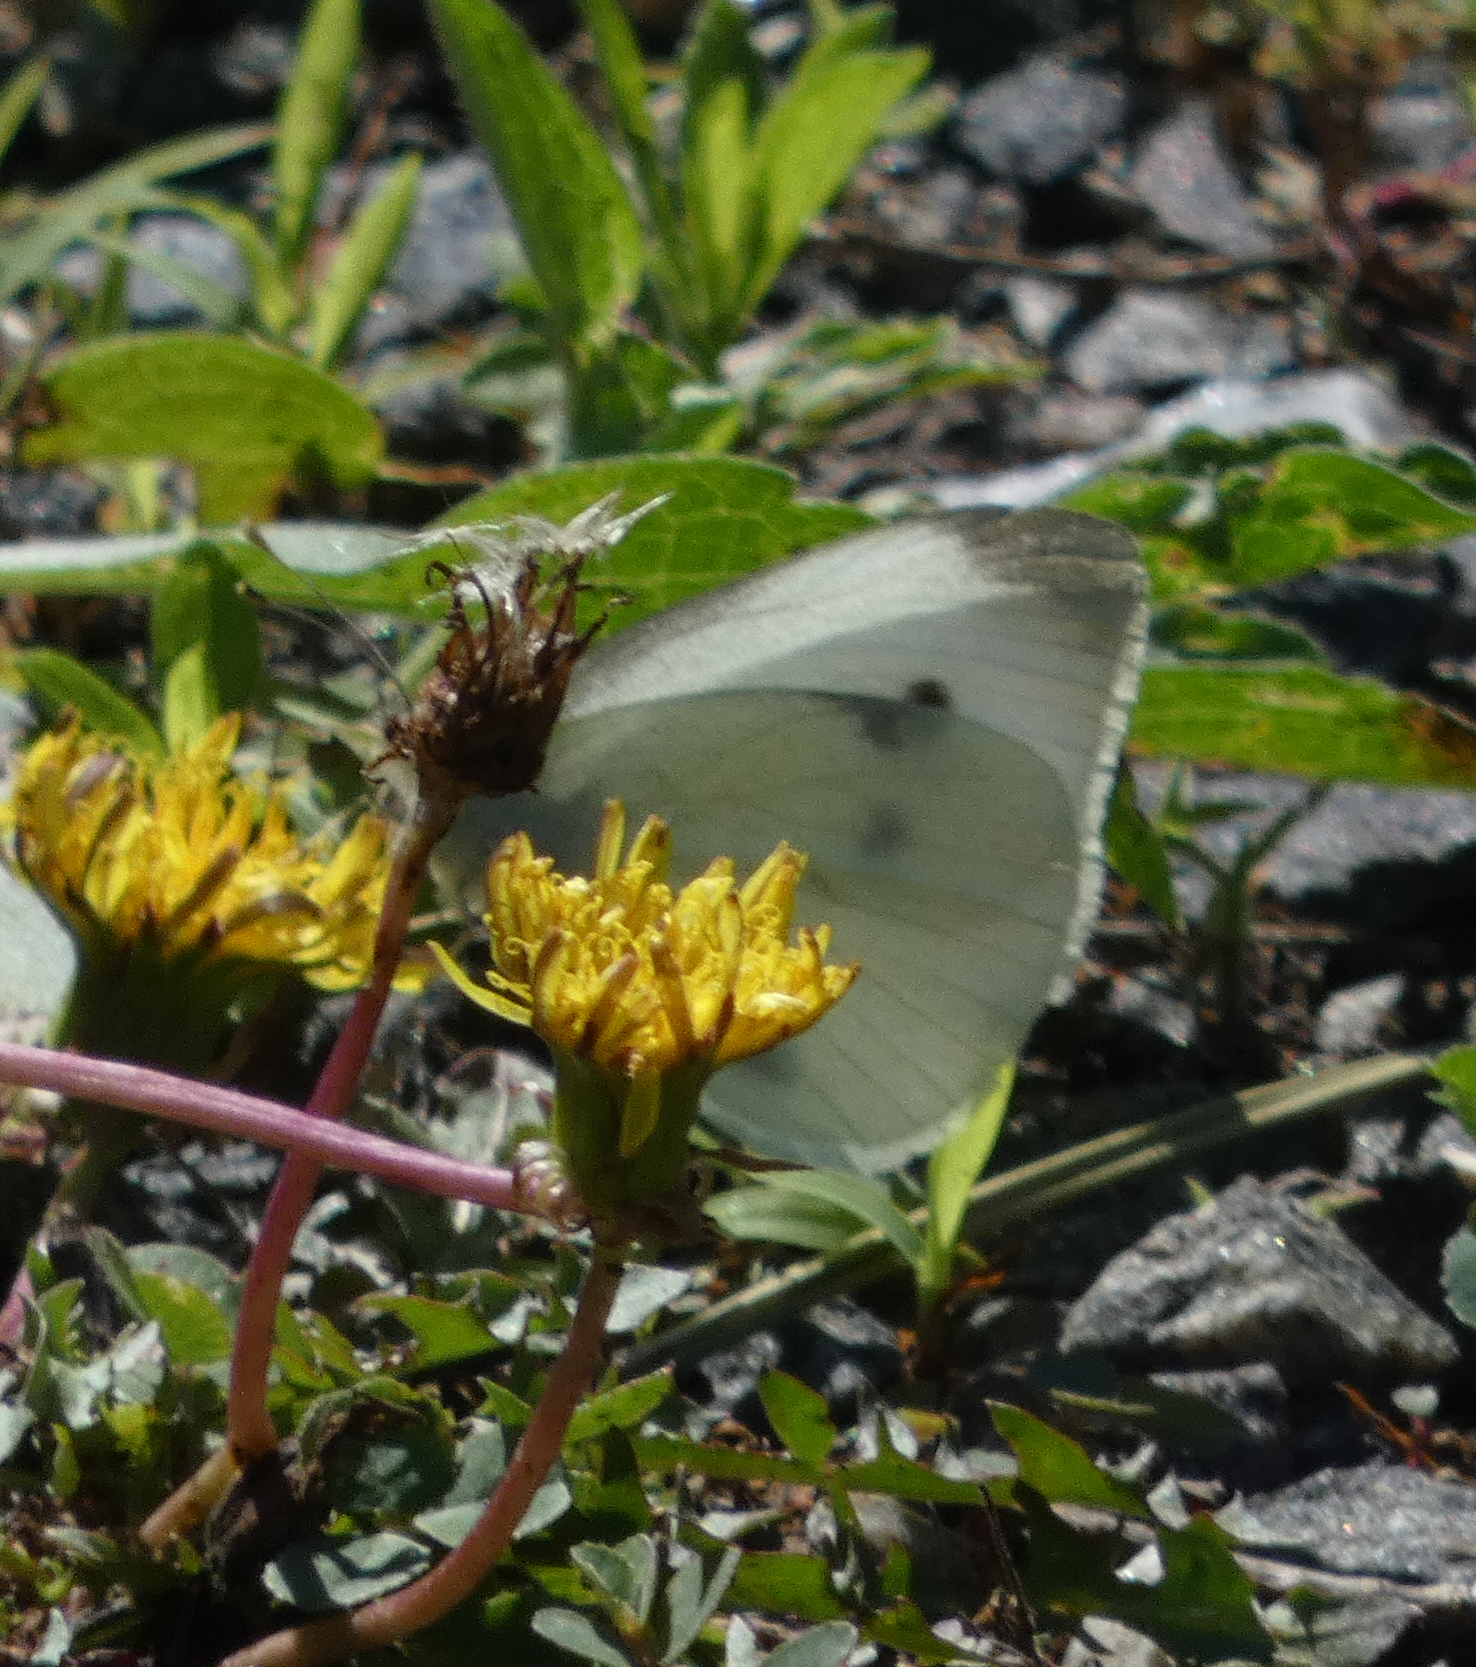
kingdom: Animalia
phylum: Arthropoda
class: Insecta
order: Lepidoptera
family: Pieridae
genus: Pieris
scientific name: Pieris rapae
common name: Small white
